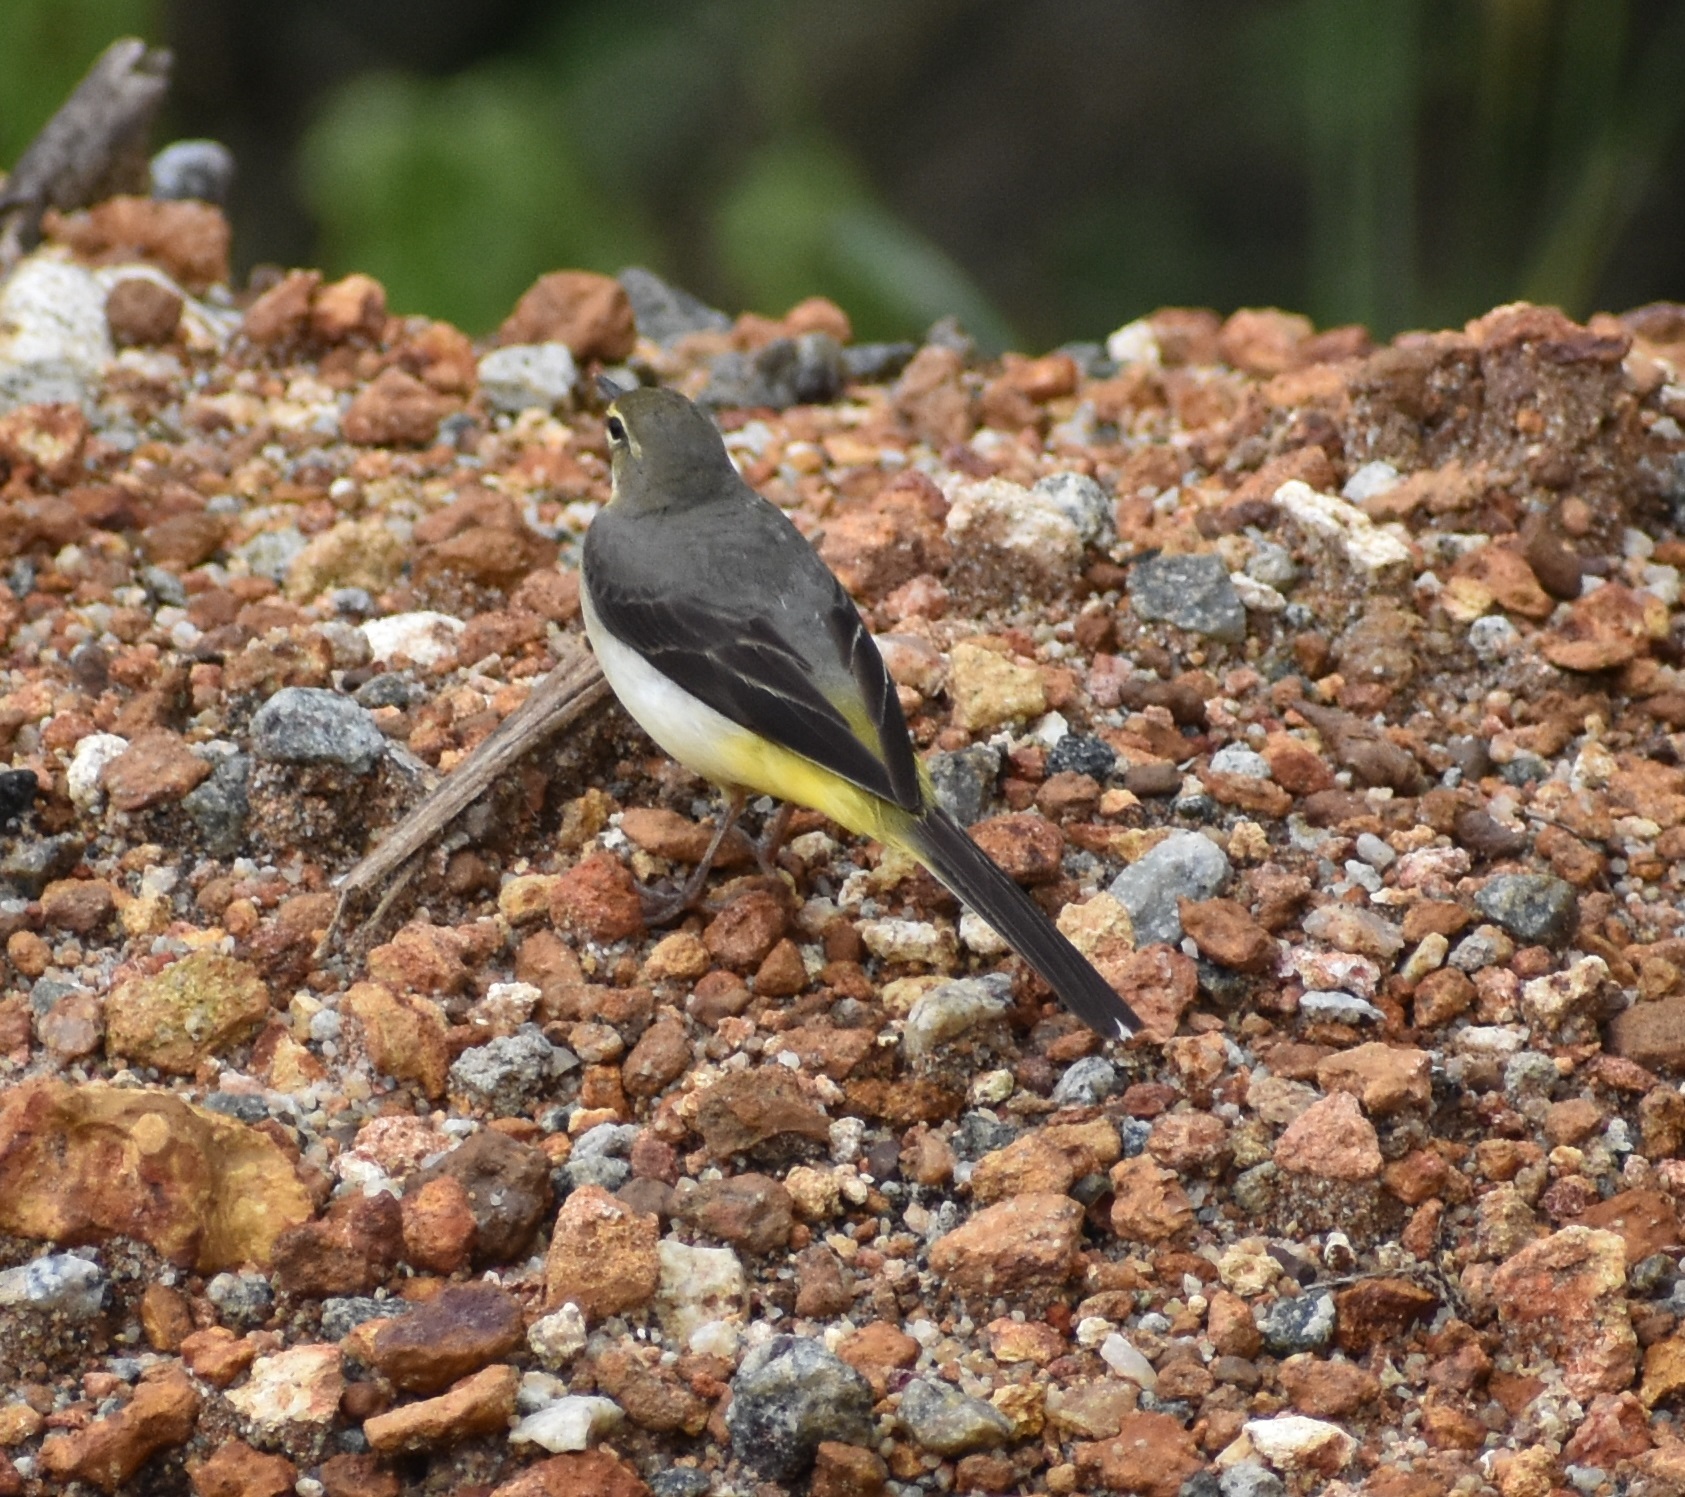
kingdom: Animalia
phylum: Chordata
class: Aves
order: Passeriformes
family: Motacillidae
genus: Motacilla
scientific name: Motacilla cinerea
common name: Grey wagtail
